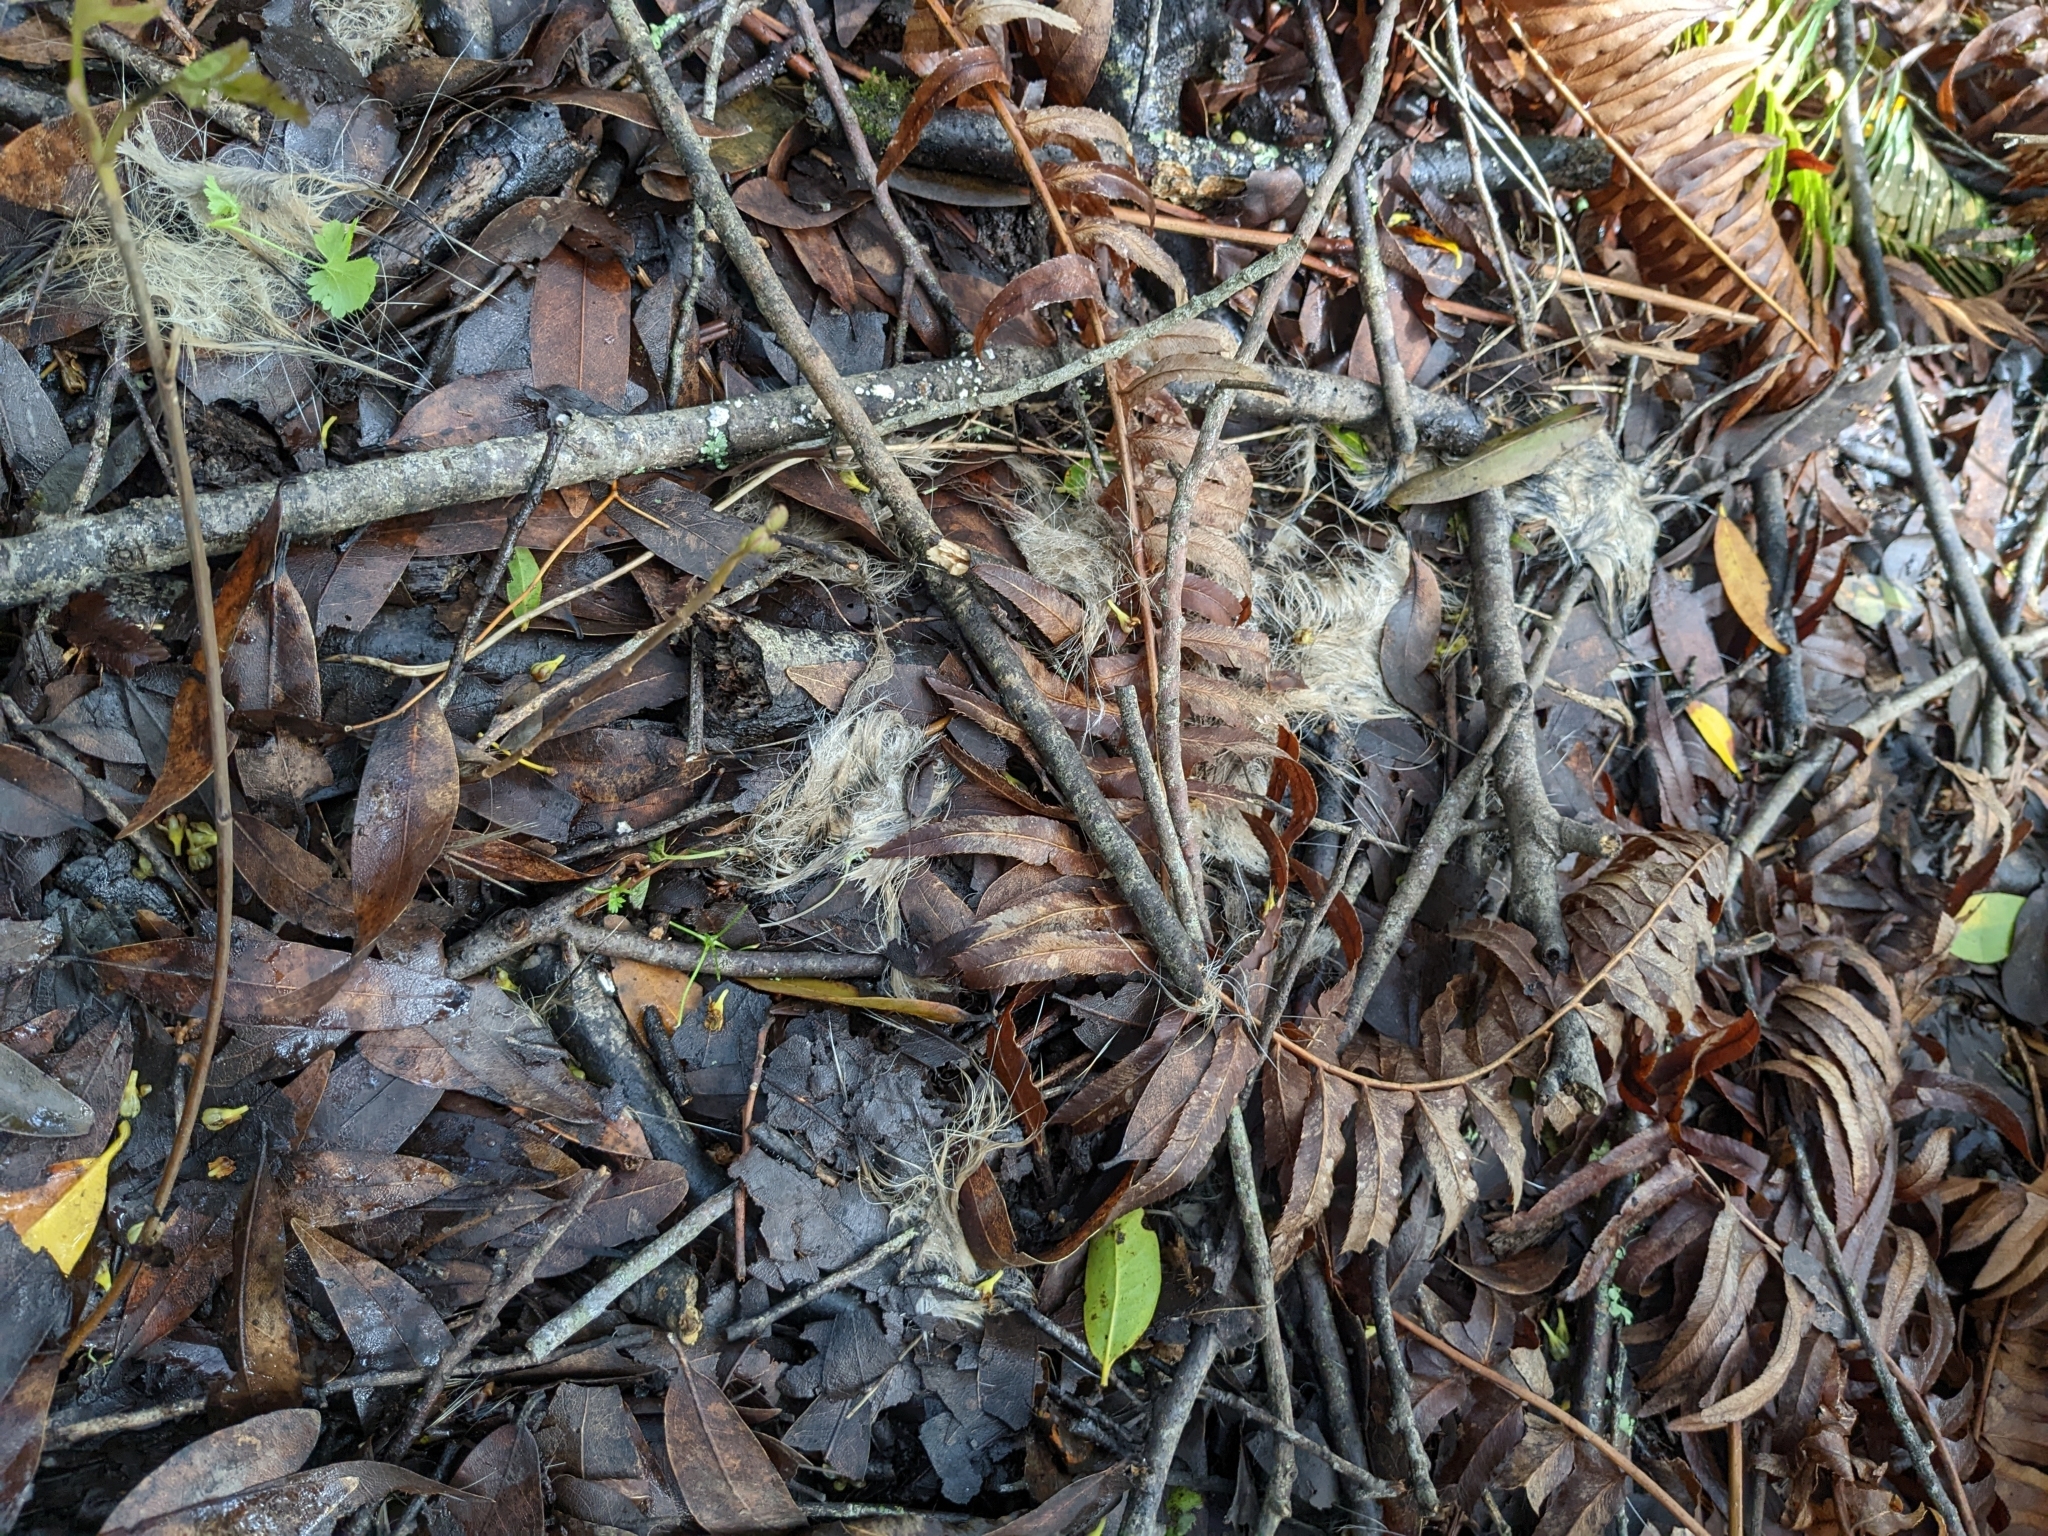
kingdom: Animalia
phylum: Chordata
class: Mammalia
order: Carnivora
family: Mustelidae
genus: Taxidea
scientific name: Taxidea taxus
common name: American badger
